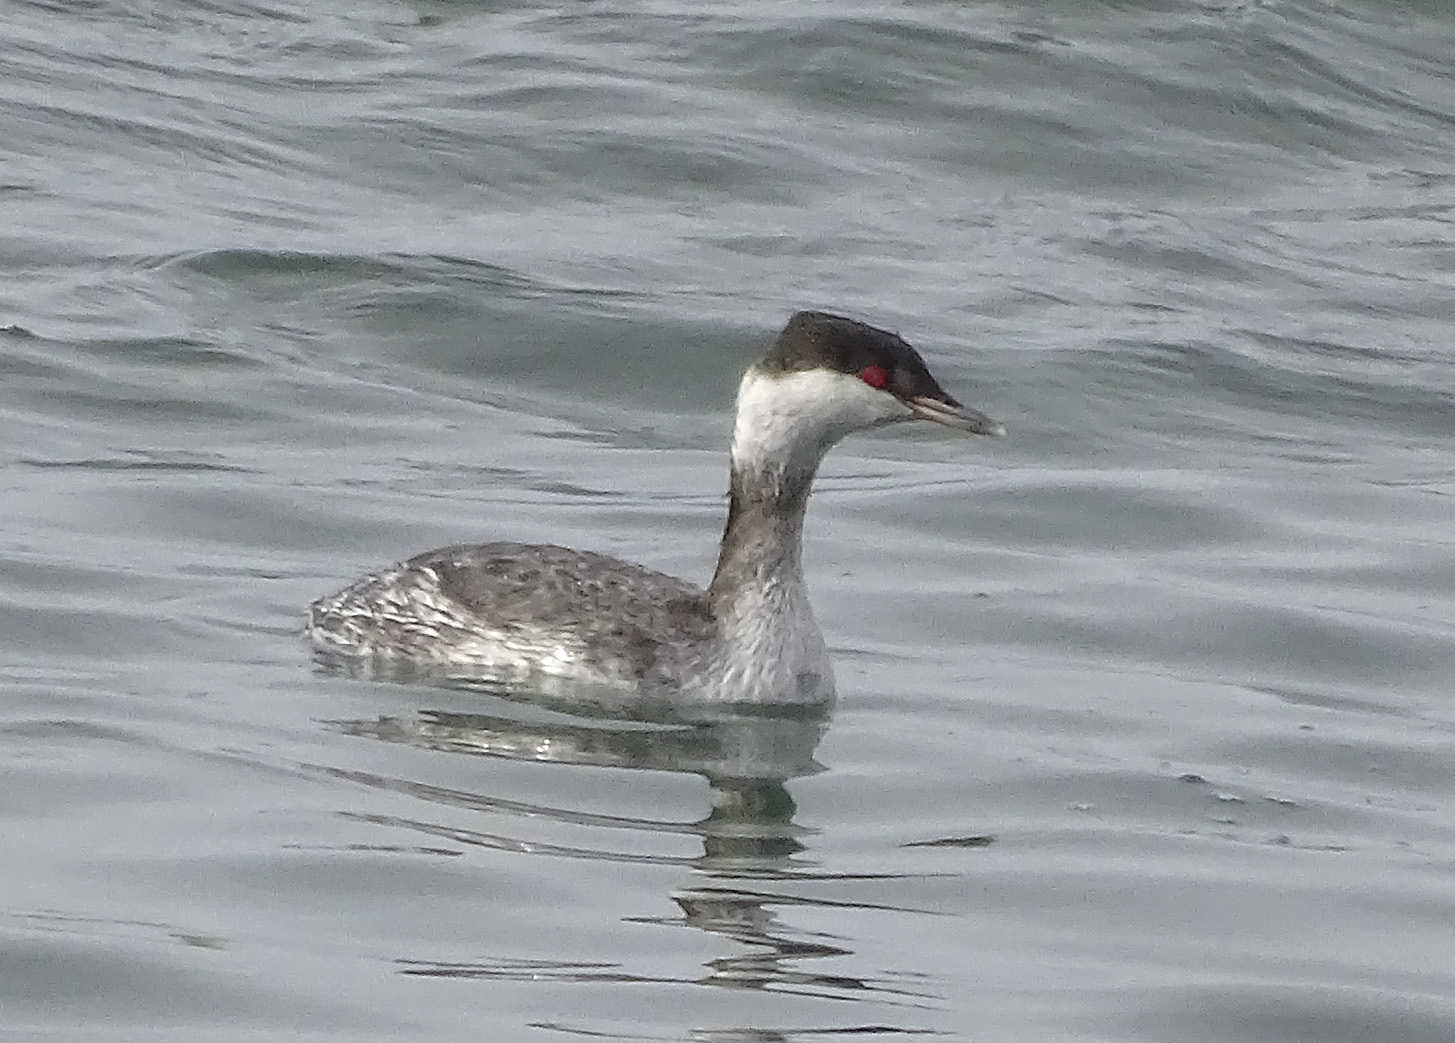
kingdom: Animalia
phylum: Chordata
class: Aves
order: Podicipediformes
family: Podicipedidae
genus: Podiceps
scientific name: Podiceps auritus
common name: Horned grebe
